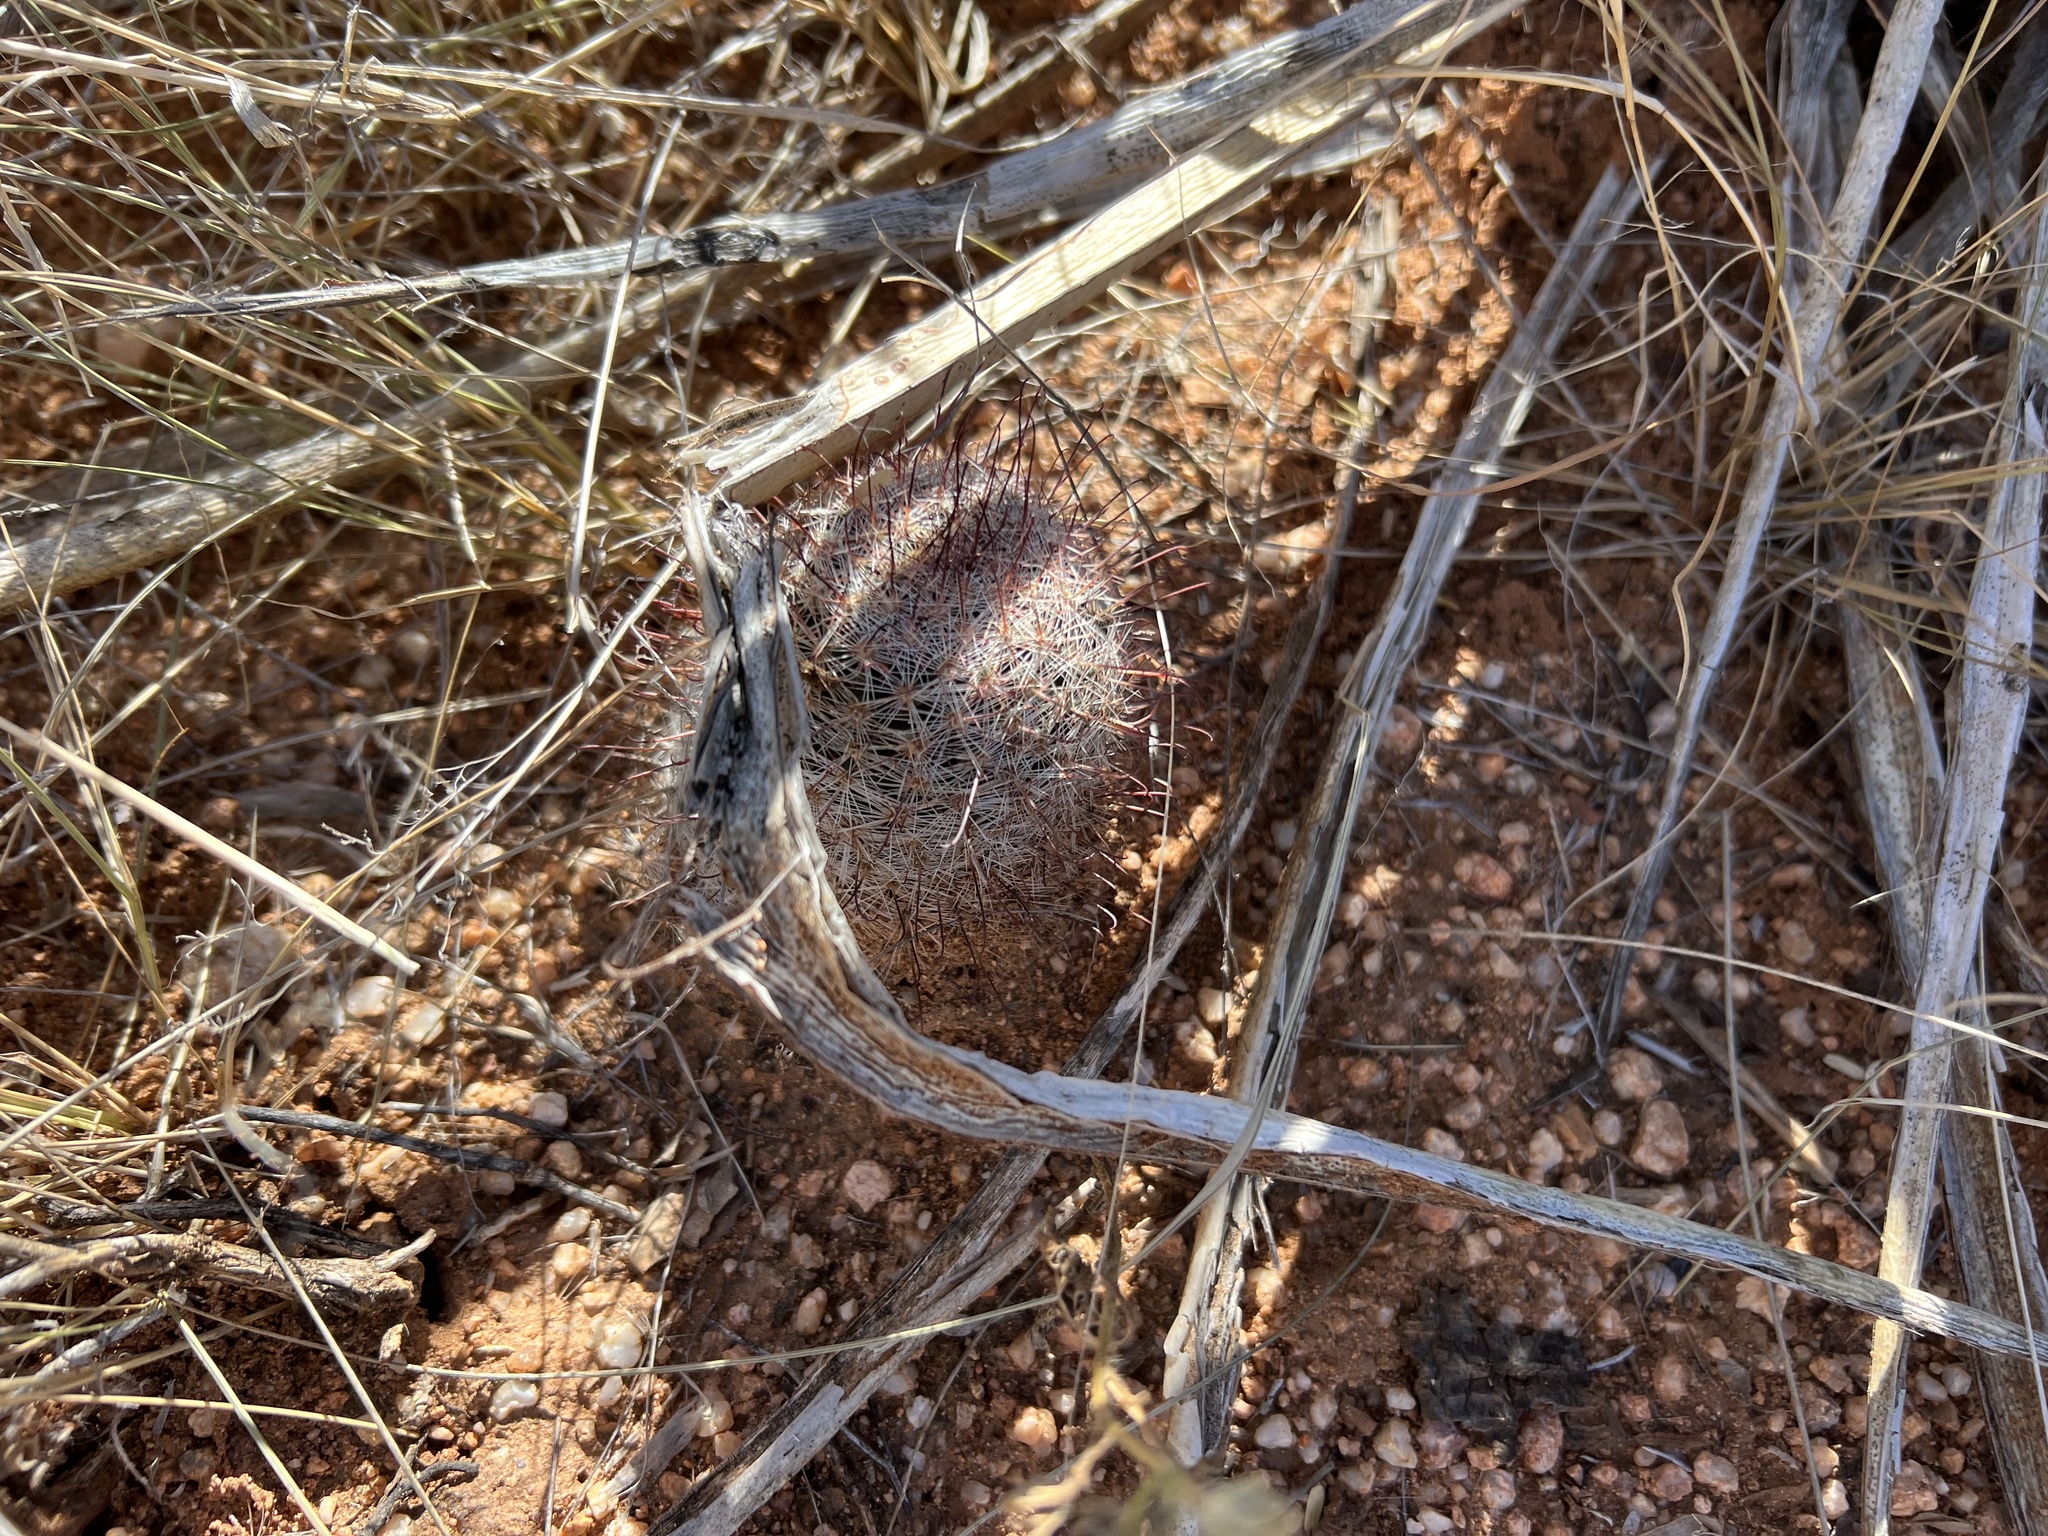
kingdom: Plantae
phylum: Tracheophyta
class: Magnoliopsida
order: Caryophyllales
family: Cactaceae
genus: Cochemiea
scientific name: Cochemiea grahamii
